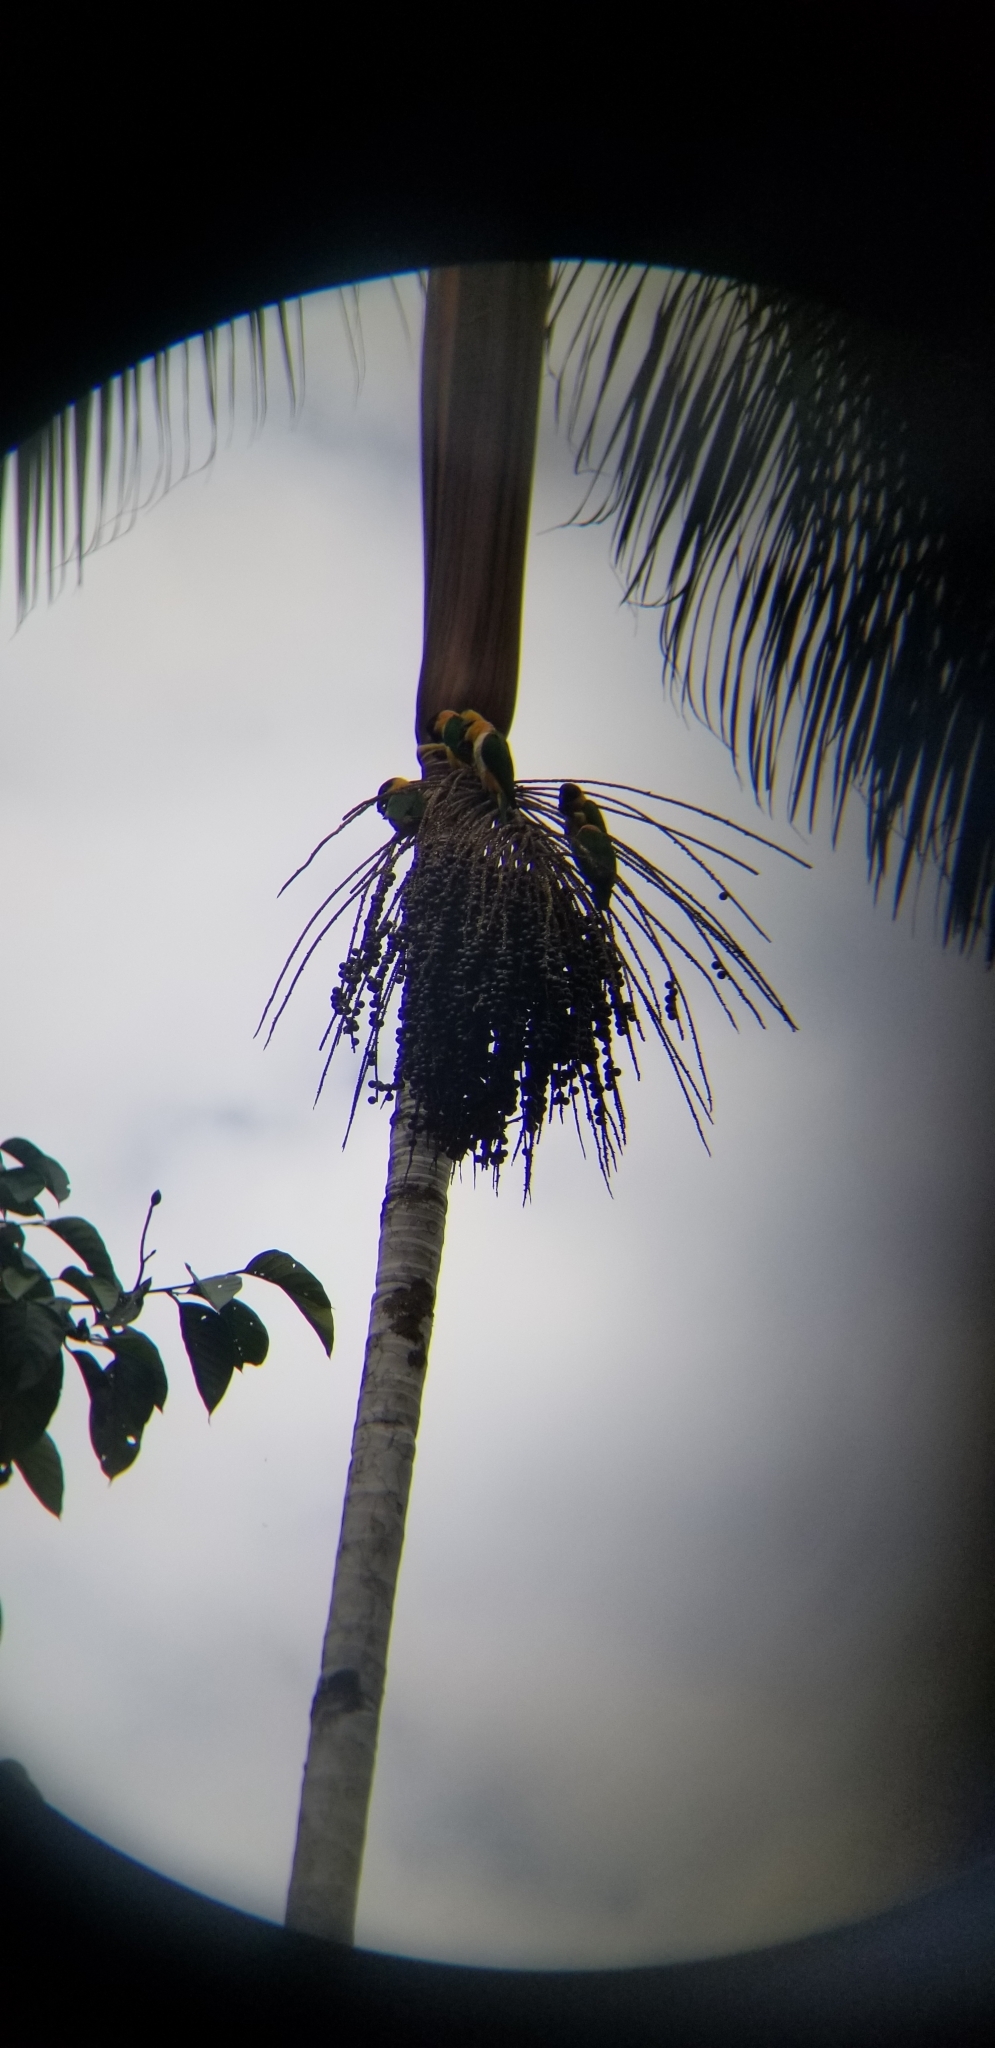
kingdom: Animalia
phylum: Chordata
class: Aves
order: Psittaciformes
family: Psittacidae
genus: Pionites
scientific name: Pionites melanocephalus
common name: Black-headed parrot
